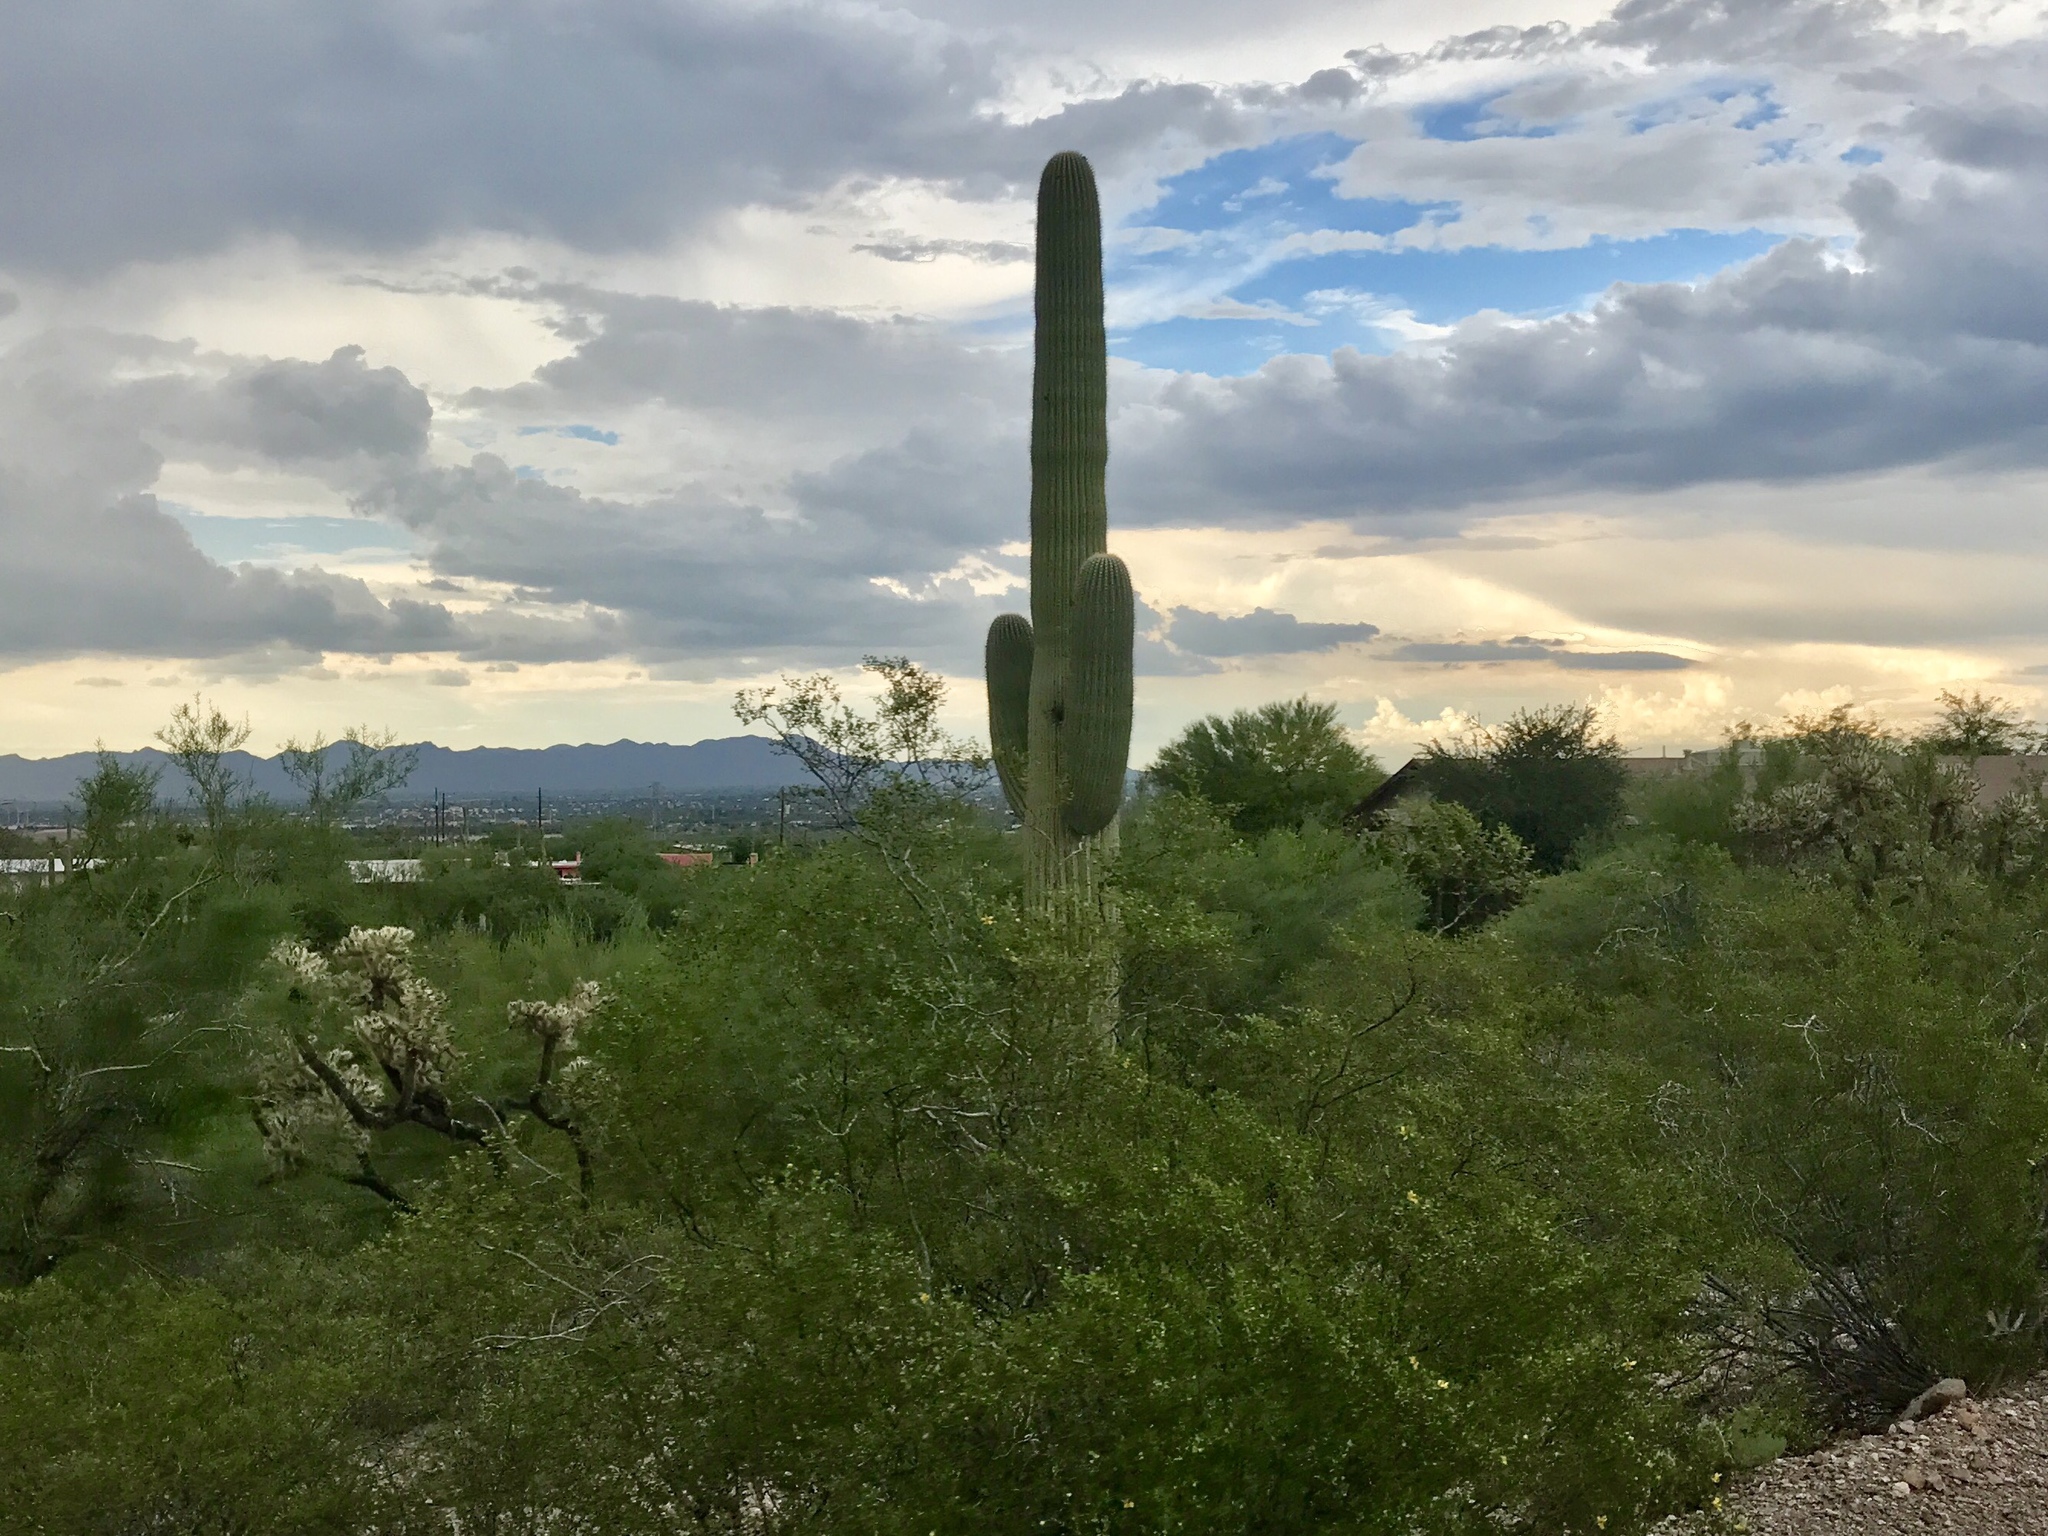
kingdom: Plantae
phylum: Tracheophyta
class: Magnoliopsida
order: Caryophyllales
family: Cactaceae
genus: Carnegiea
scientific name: Carnegiea gigantea
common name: Saguaro
